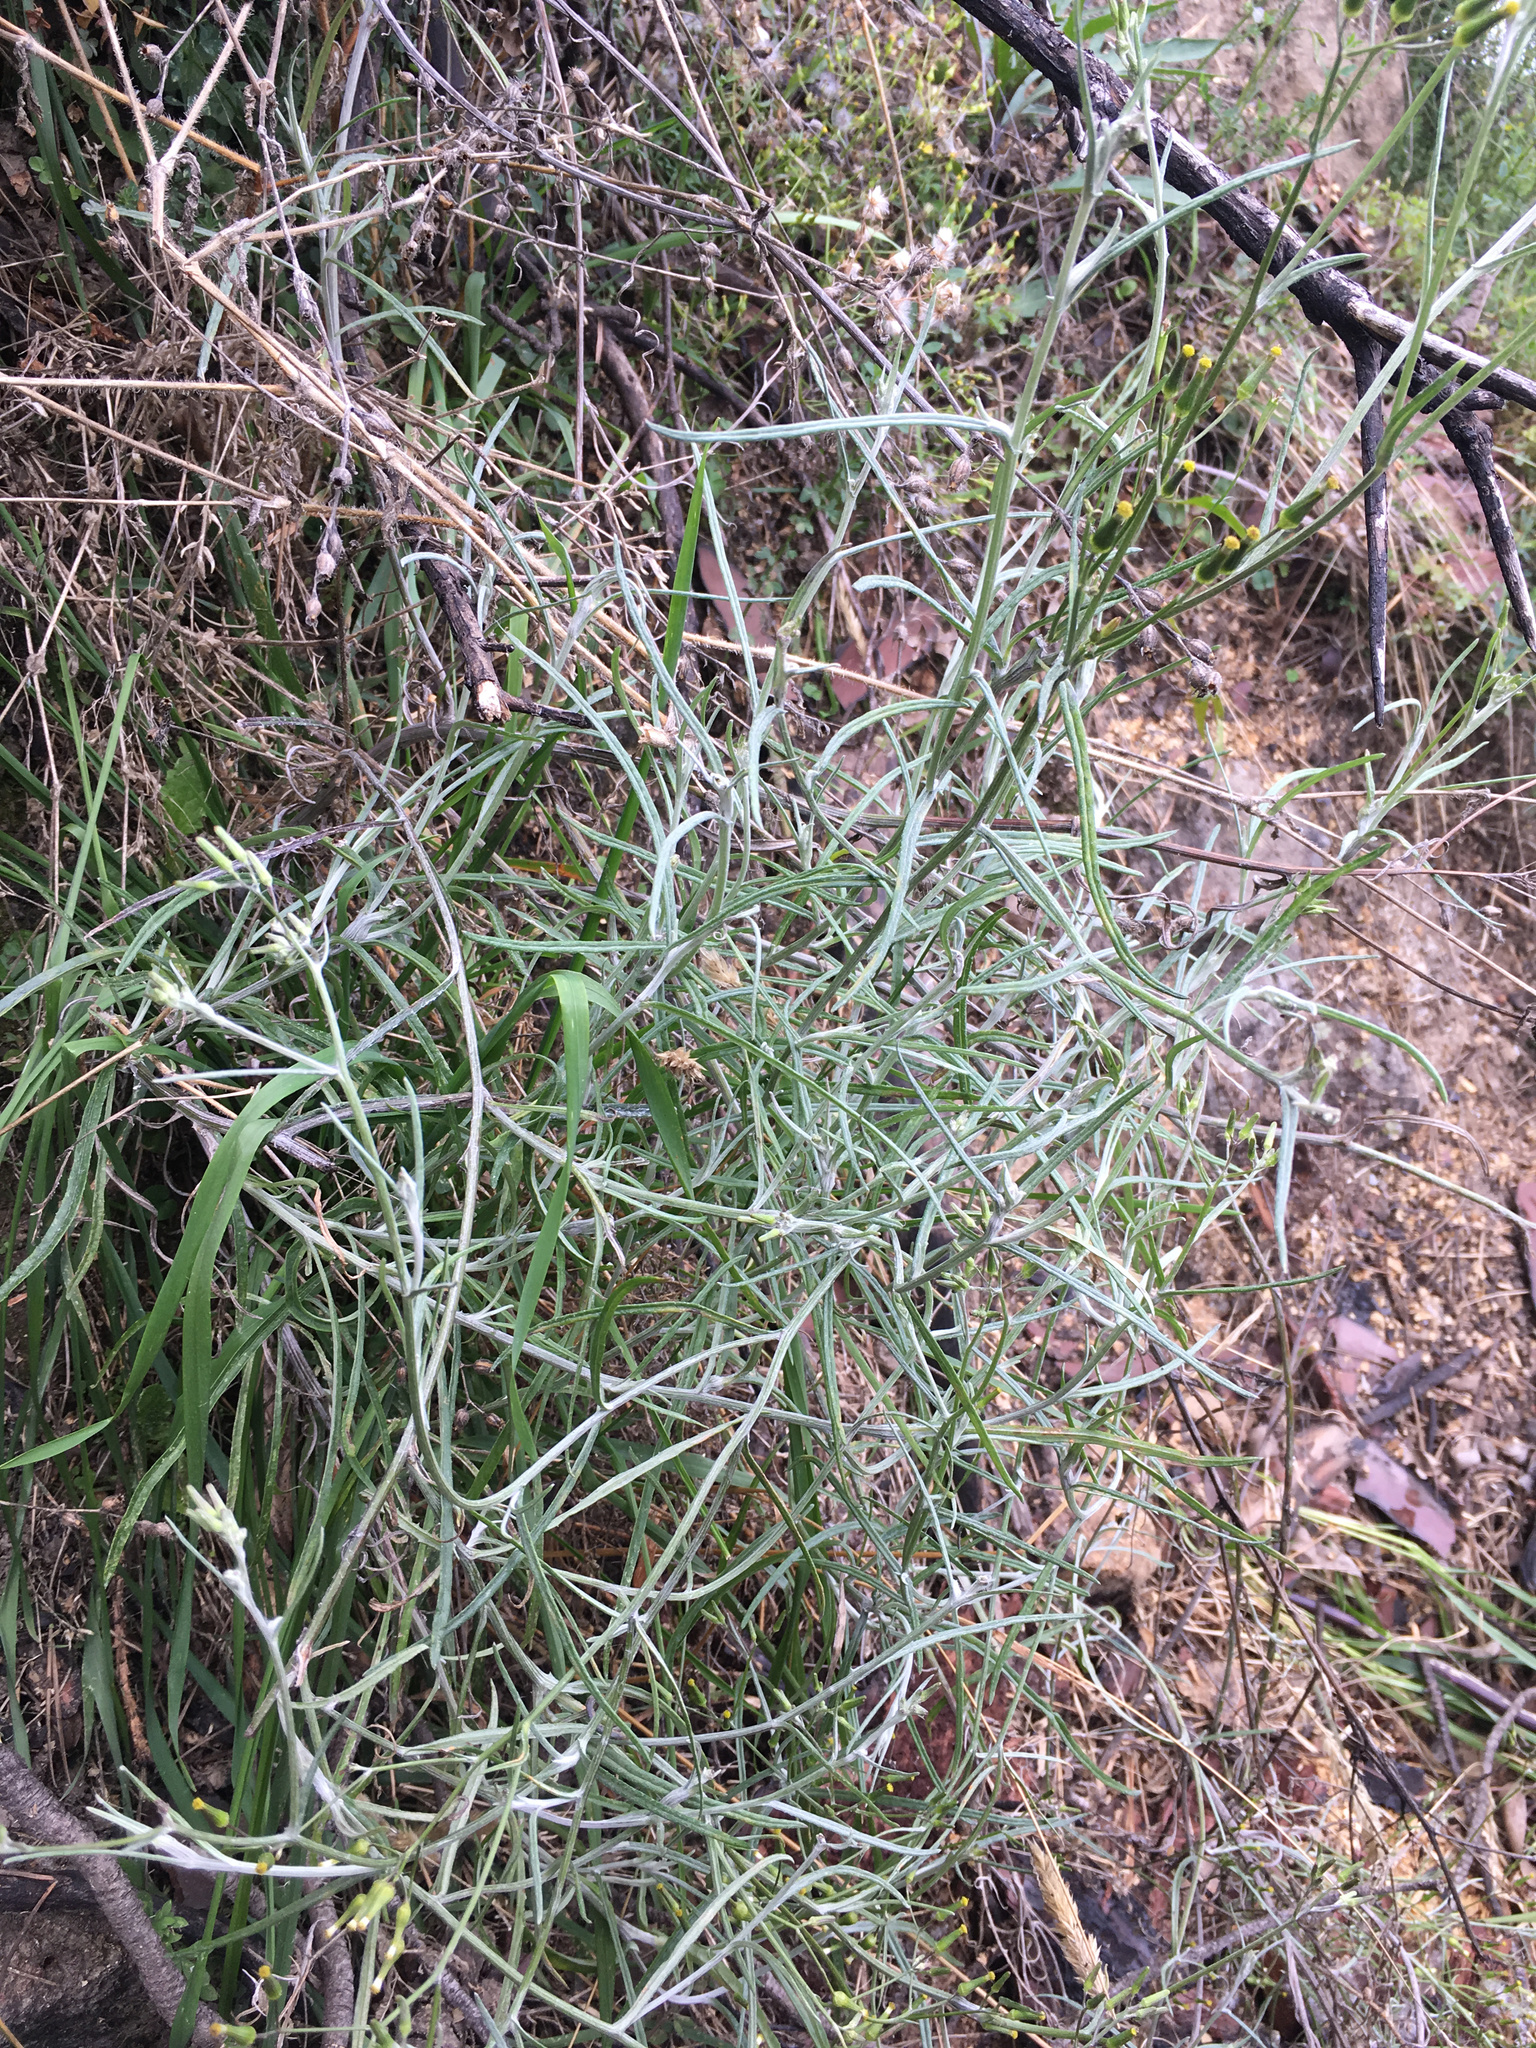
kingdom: Plantae
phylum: Tracheophyta
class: Magnoliopsida
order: Asterales
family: Asteraceae
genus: Senecio
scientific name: Senecio quadridentatus
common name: Cotton fireweed
